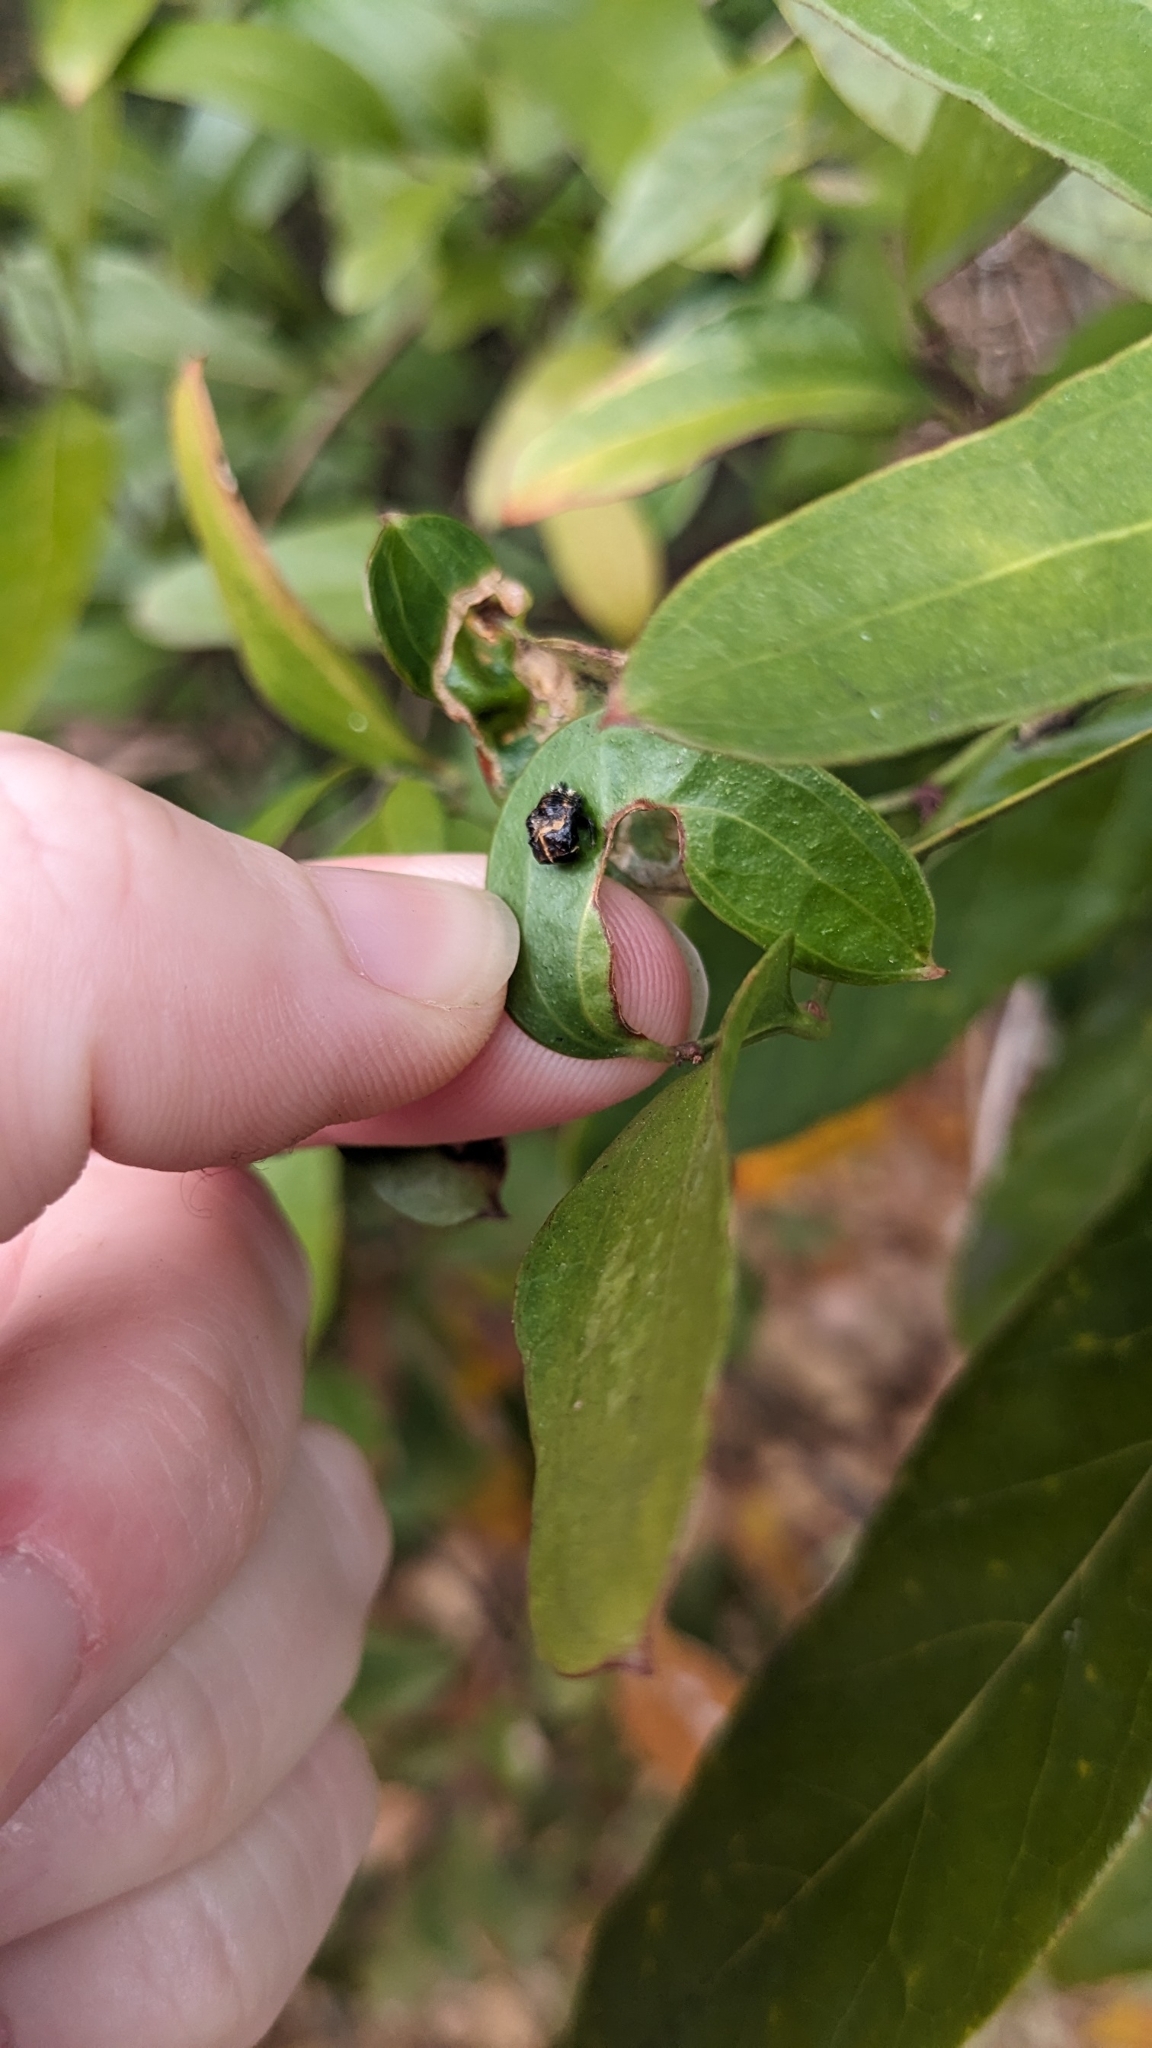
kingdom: Animalia
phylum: Arthropoda
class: Insecta
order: Coleoptera
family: Coccinellidae
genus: Harmonia
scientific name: Harmonia axyridis
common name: Harlequin ladybird
